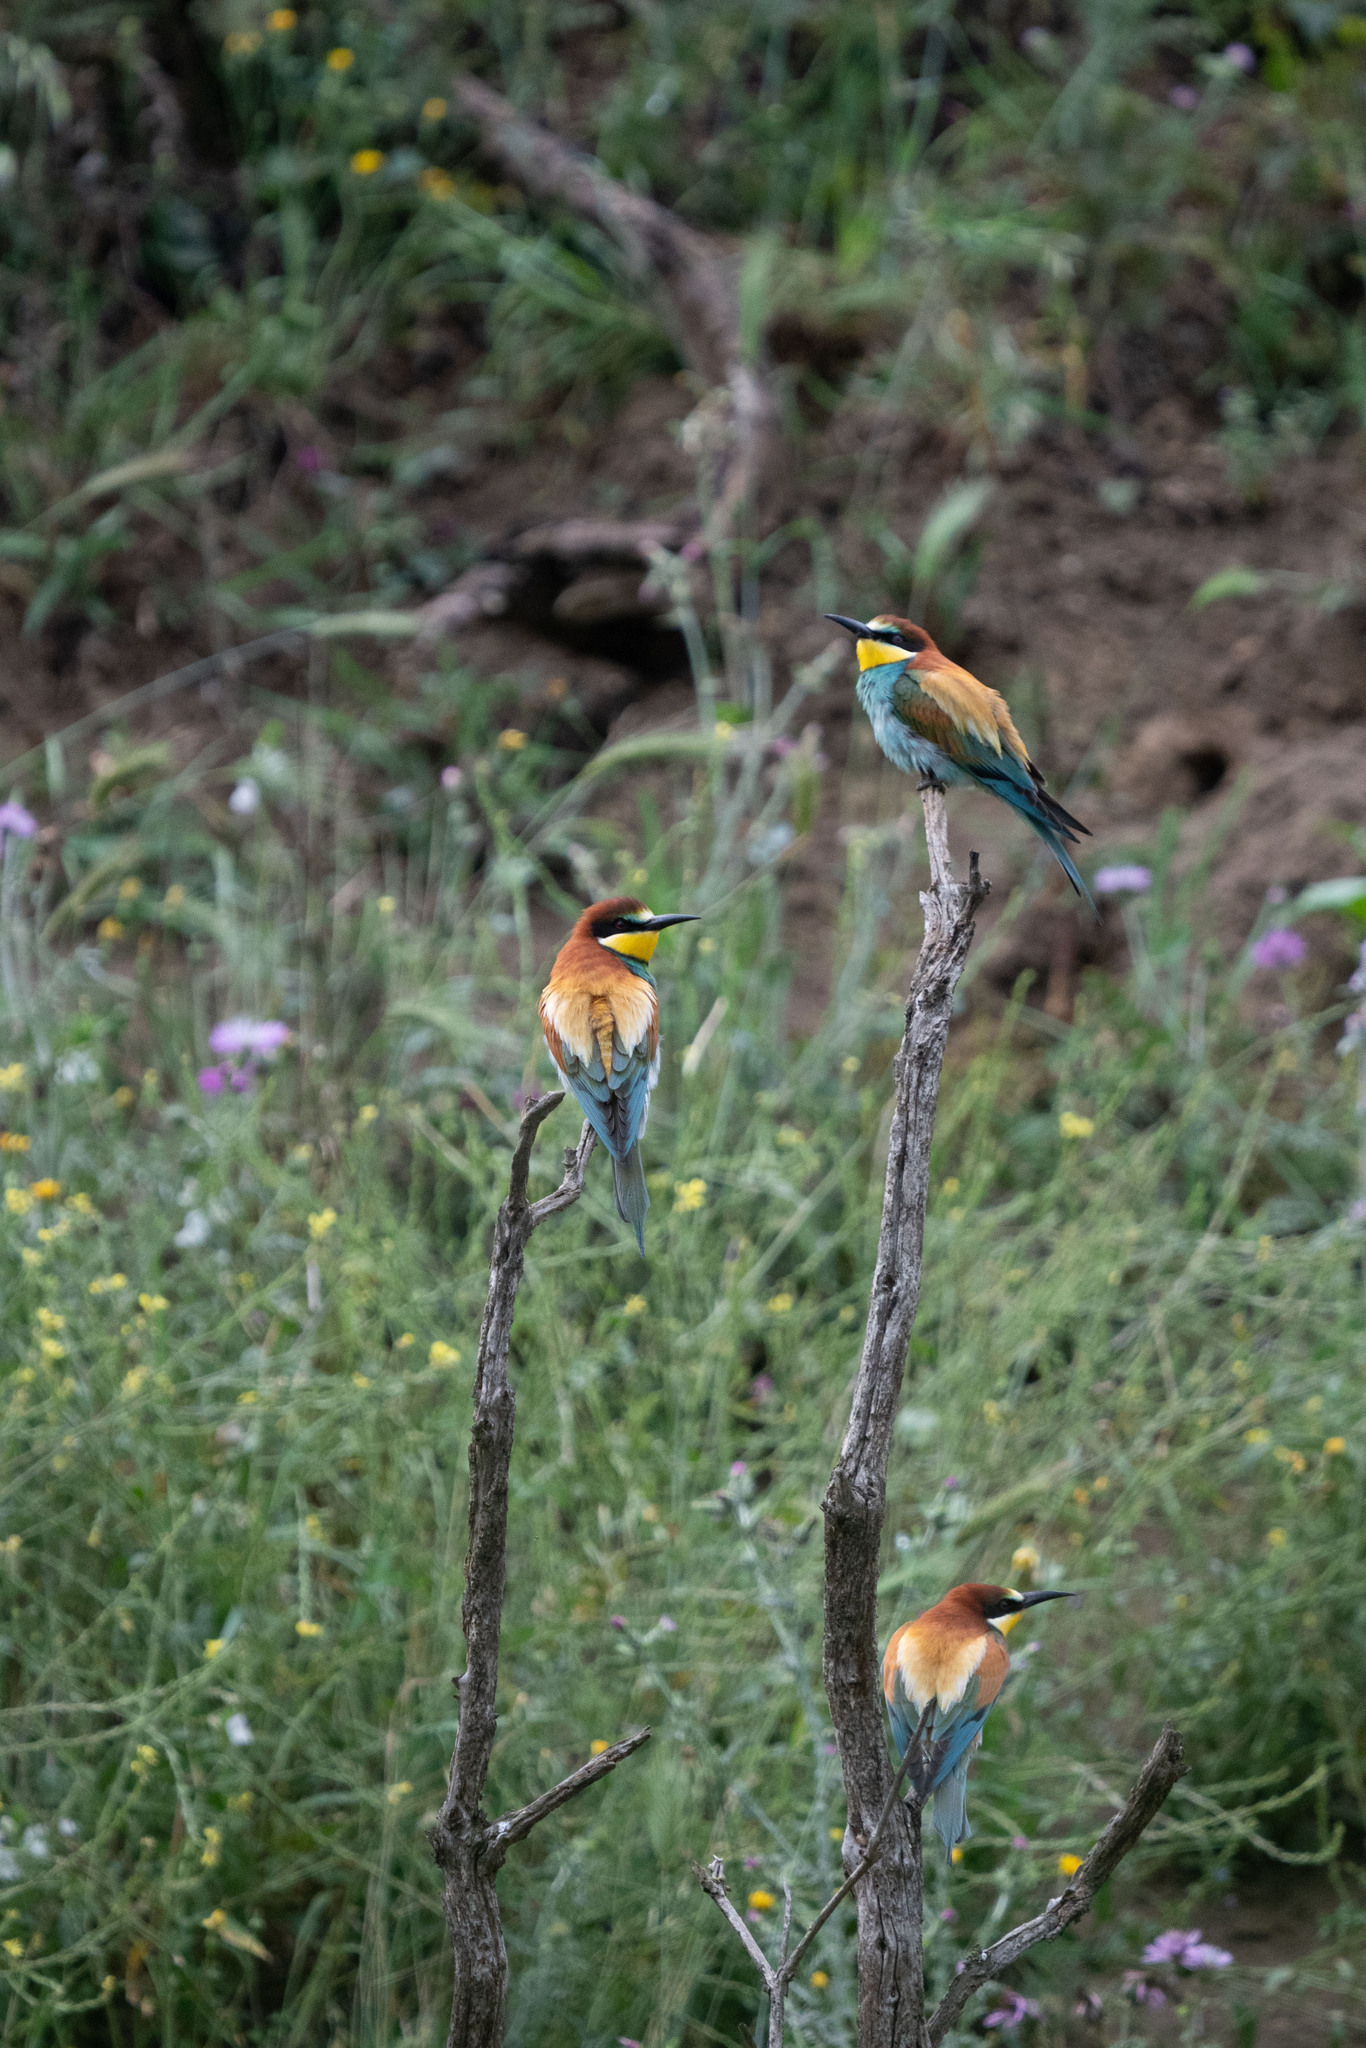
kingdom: Animalia
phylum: Chordata
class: Aves
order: Coraciiformes
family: Meropidae
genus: Merops
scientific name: Merops apiaster
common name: European bee-eater
